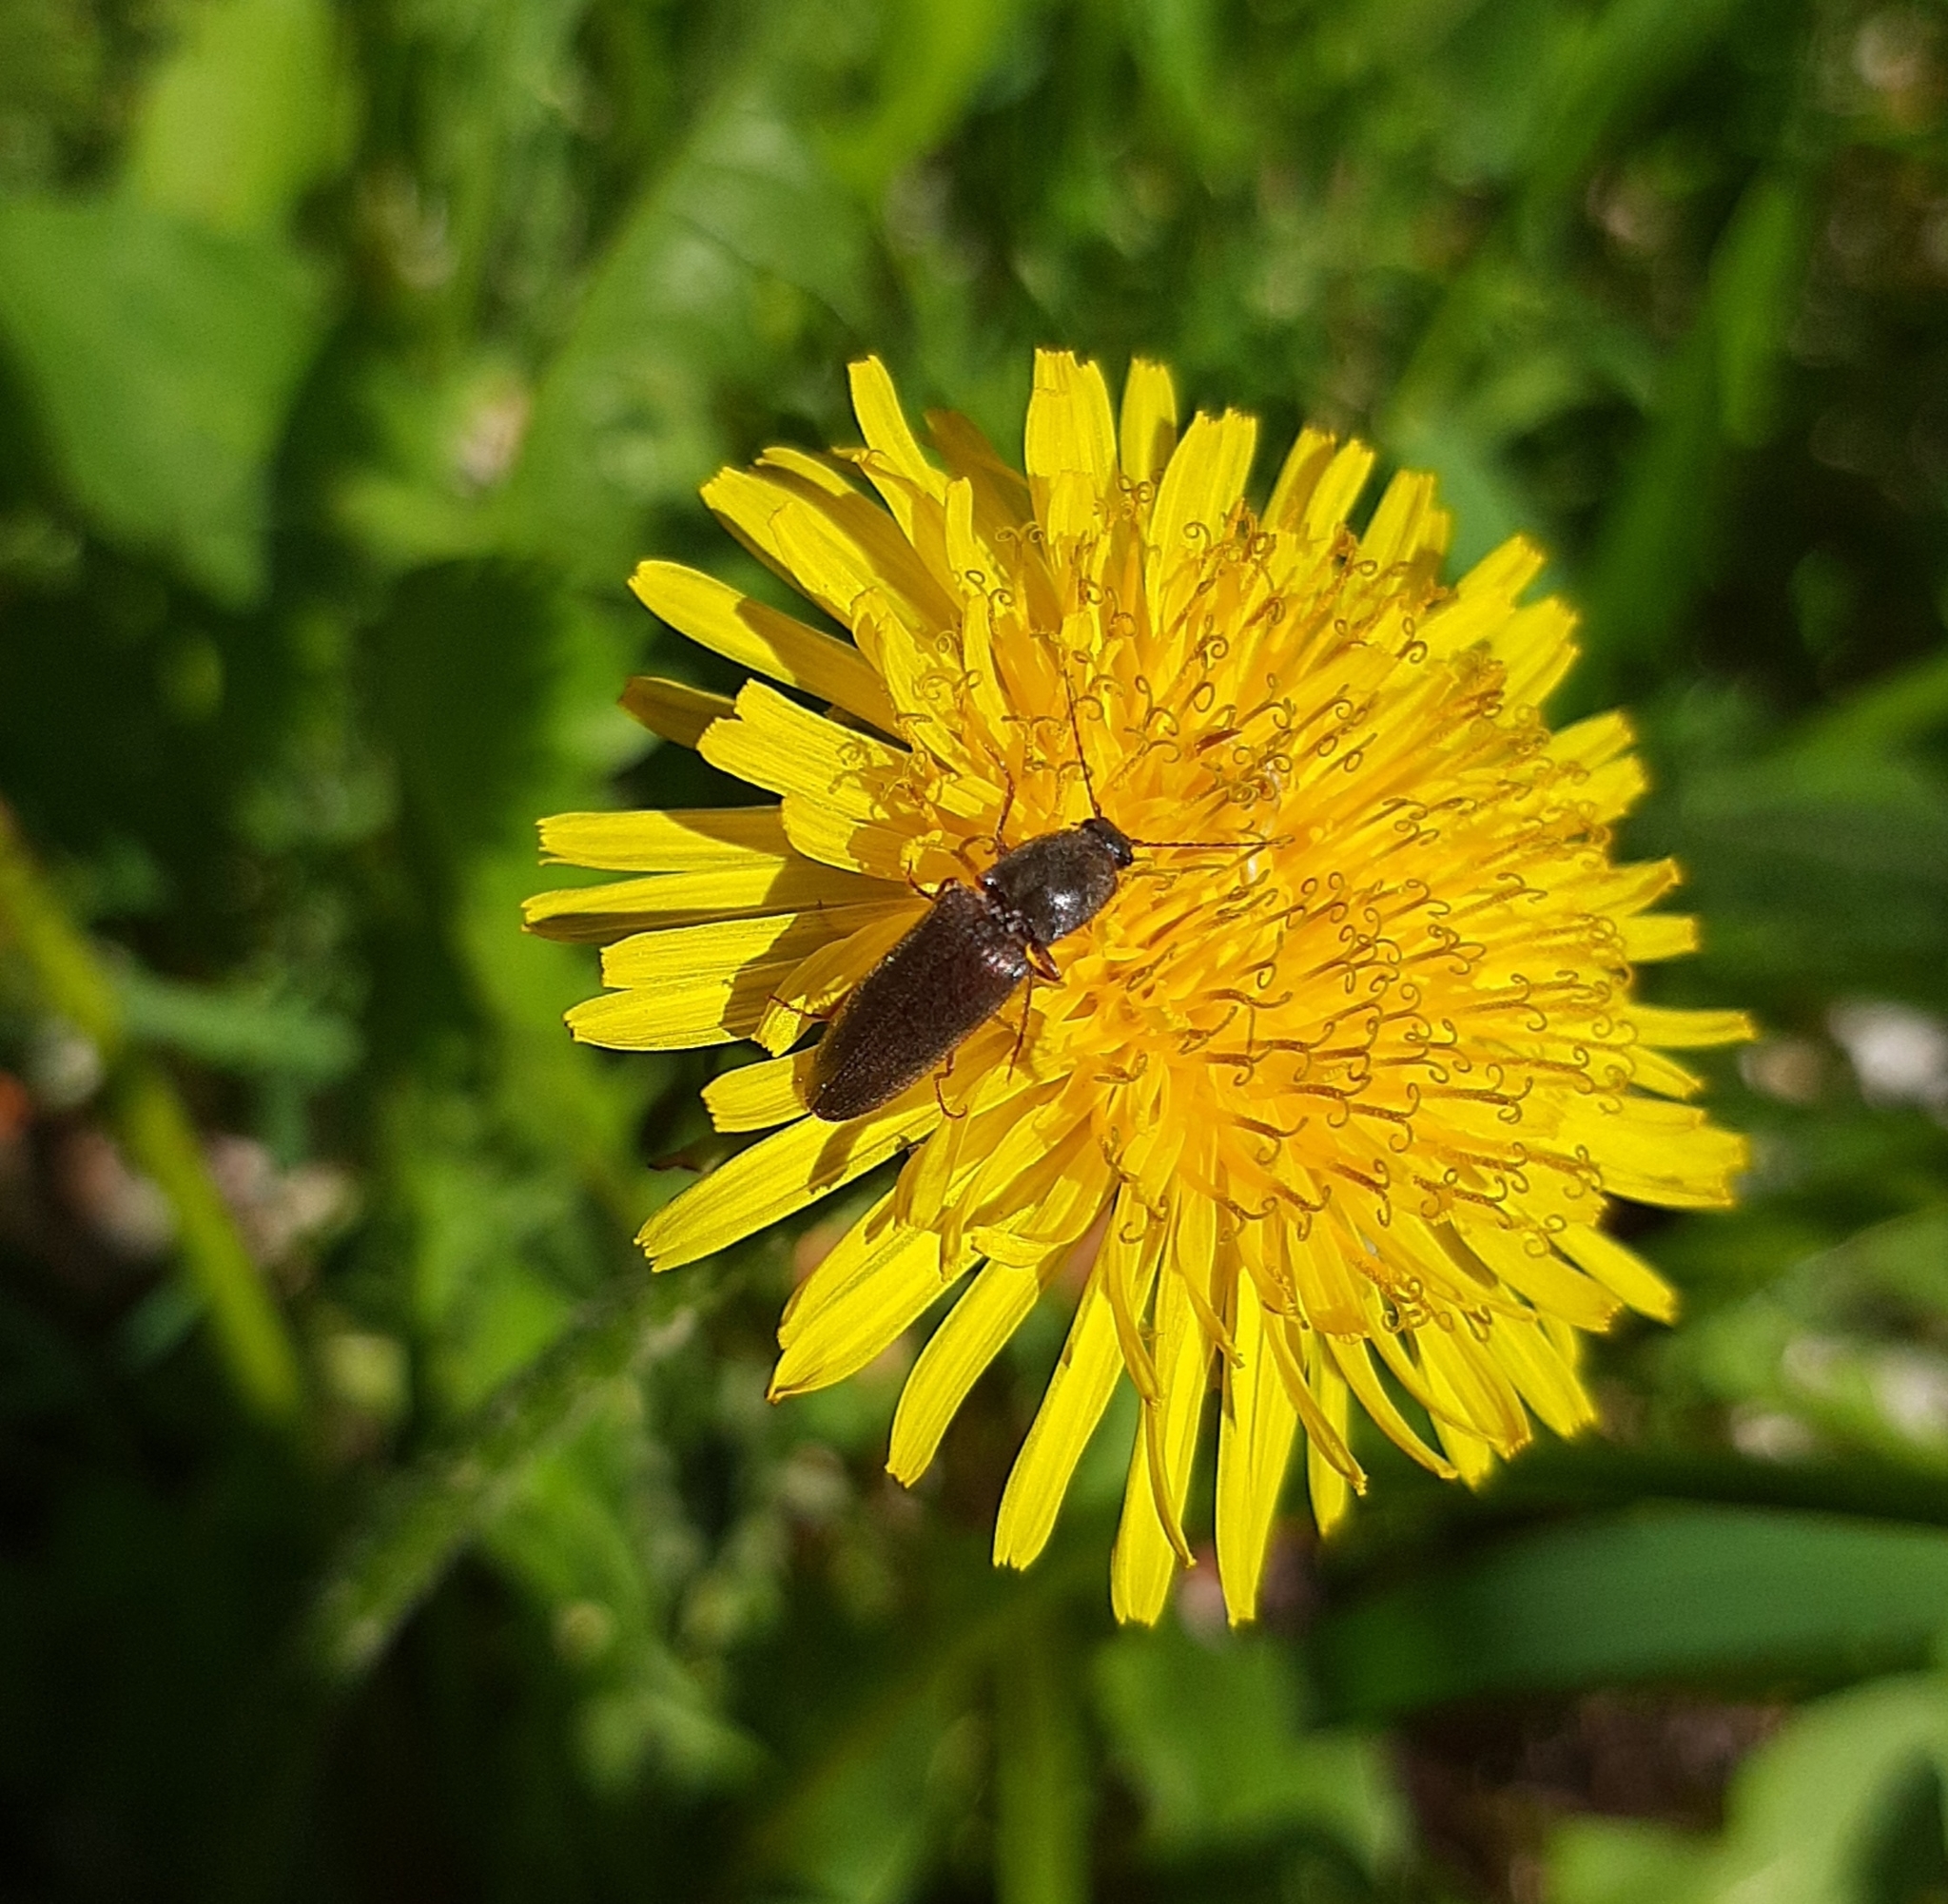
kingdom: Animalia
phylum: Arthropoda
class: Insecta
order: Coleoptera
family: Elateridae
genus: Athous
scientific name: Athous haemorrhoidalis
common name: Red-brown click beetle
